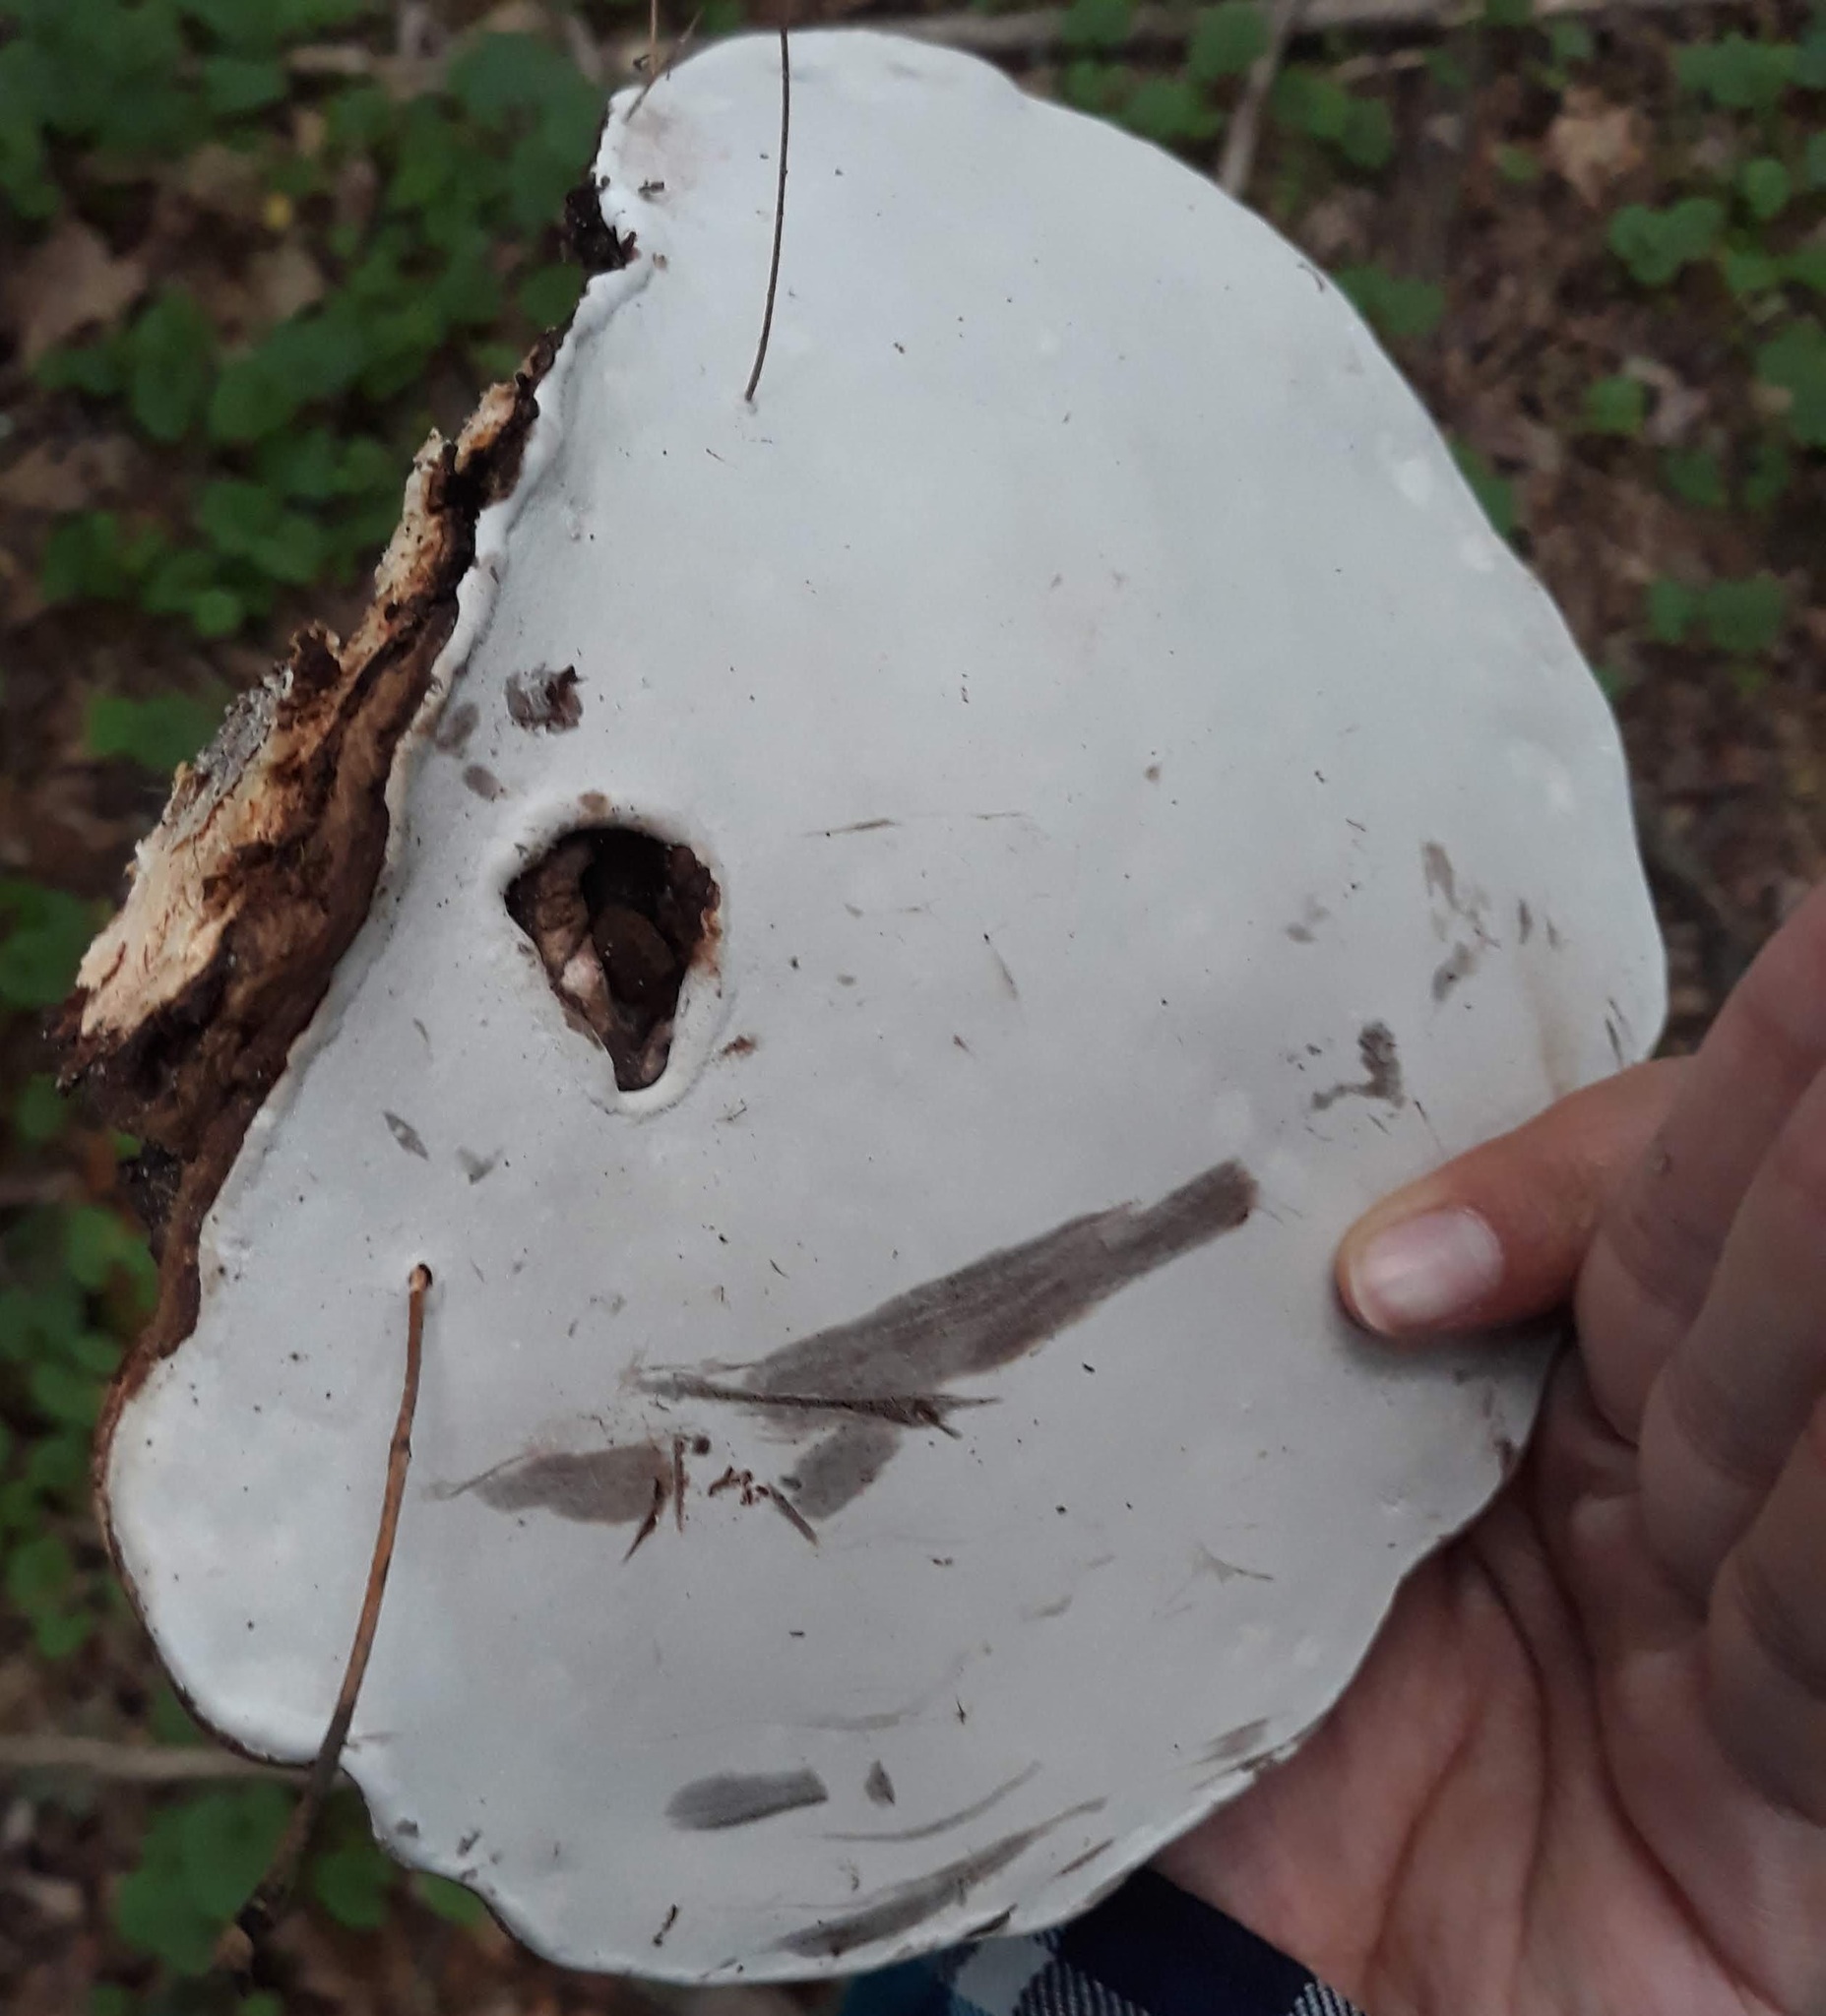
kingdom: Fungi
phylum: Basidiomycota
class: Agaricomycetes
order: Polyporales
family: Polyporaceae
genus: Ganoderma
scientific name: Ganoderma applanatum
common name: Artist's bracket
